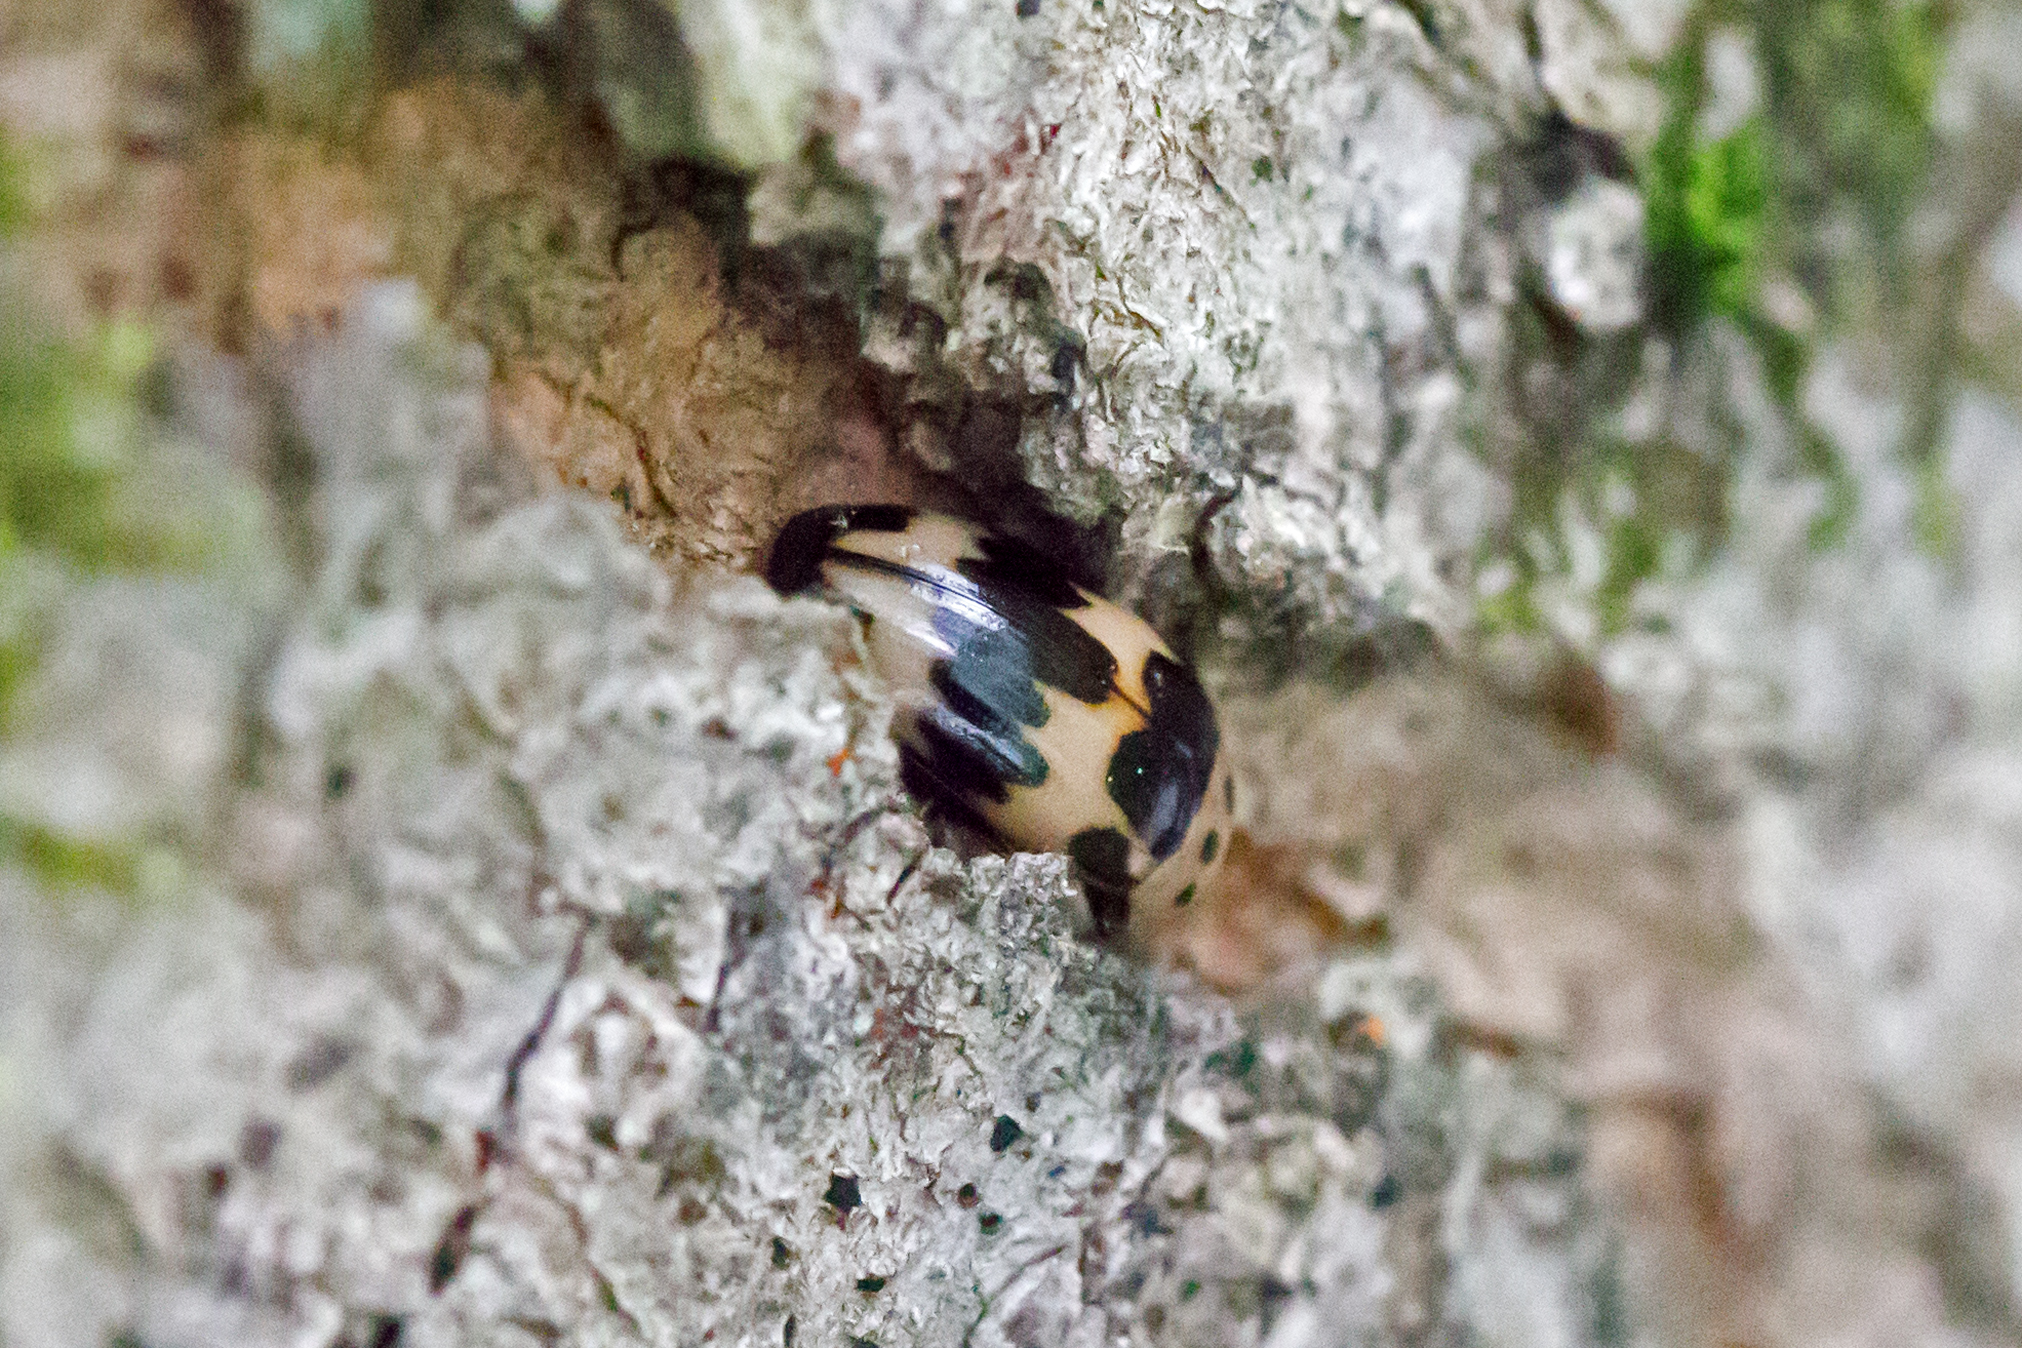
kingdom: Animalia
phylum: Arthropoda
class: Insecta
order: Coleoptera
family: Erotylidae
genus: Ischyrus
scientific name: Ischyrus quadripunctatus
